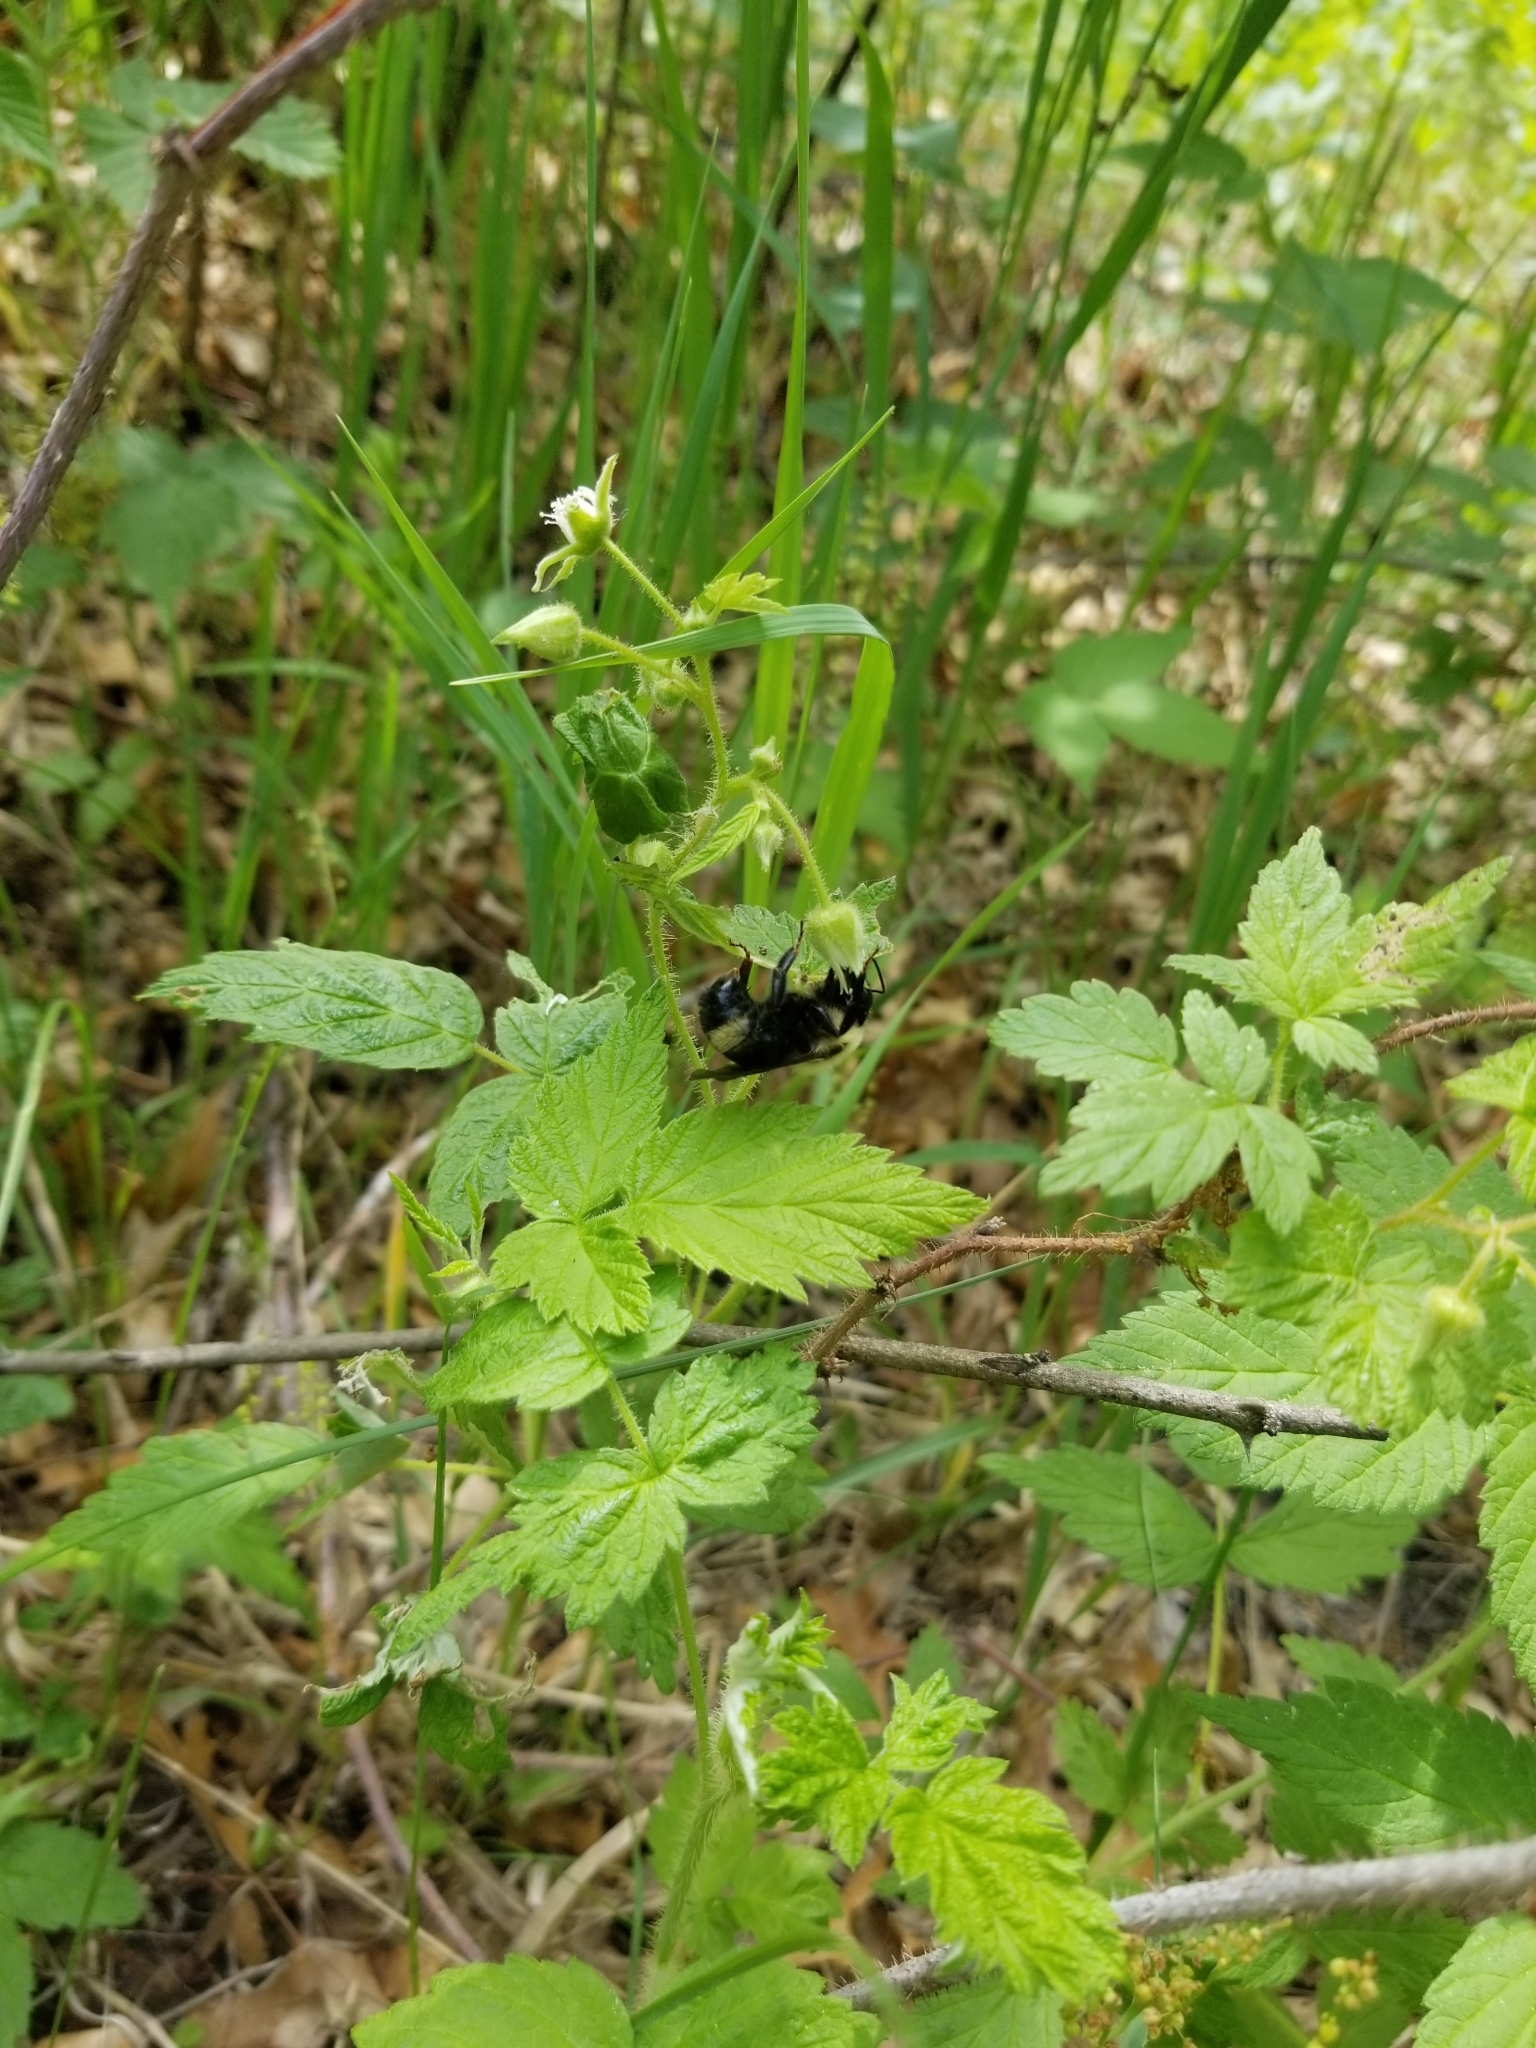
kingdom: Animalia
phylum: Arthropoda
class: Insecta
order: Hymenoptera
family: Apidae
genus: Bombus
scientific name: Bombus citrinus
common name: Lemon cuckoo bumble bee
